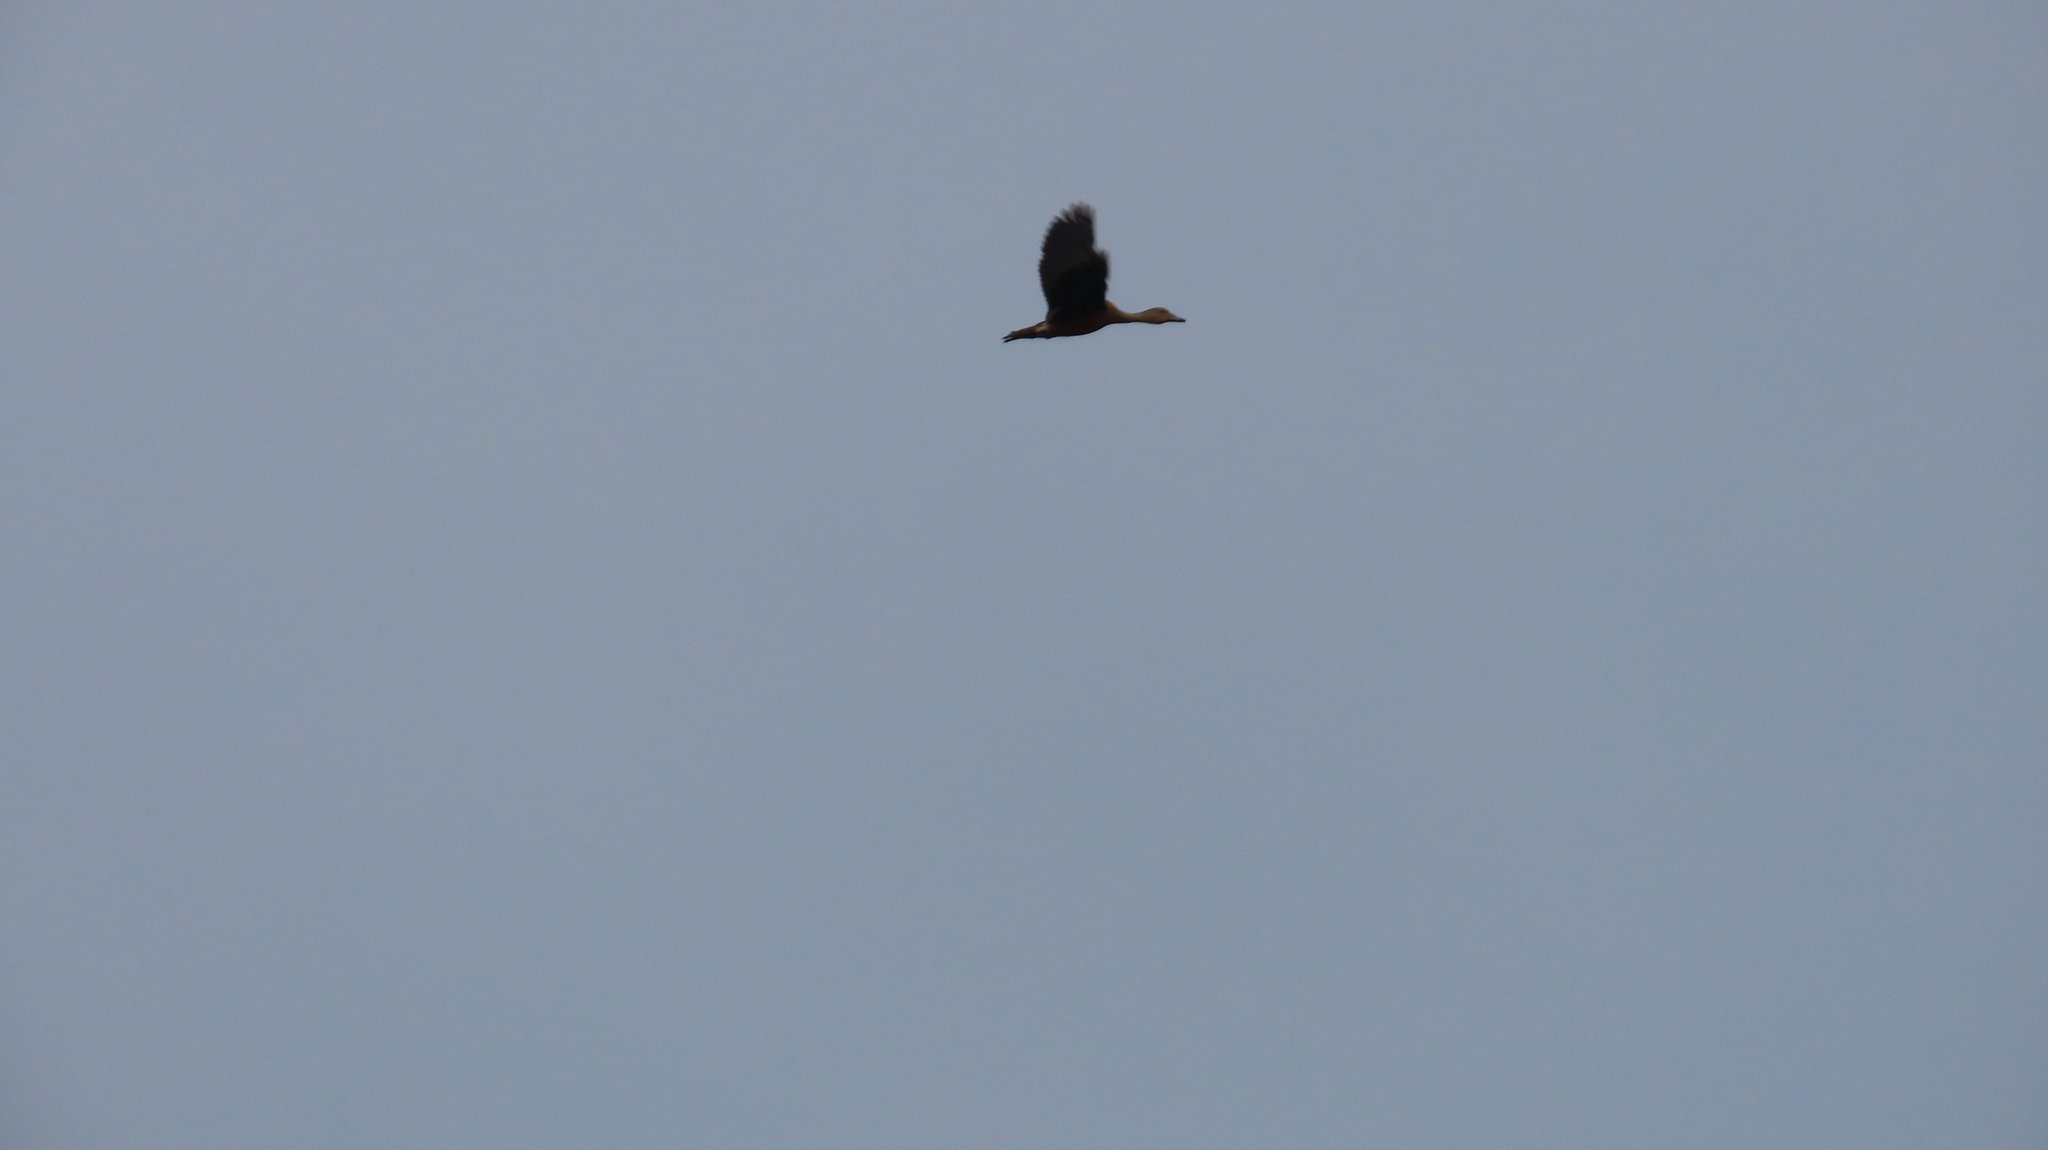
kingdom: Animalia
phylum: Chordata
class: Aves
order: Anseriformes
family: Anatidae
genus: Dendrocygna
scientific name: Dendrocygna javanica
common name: Lesser whistling-duck
